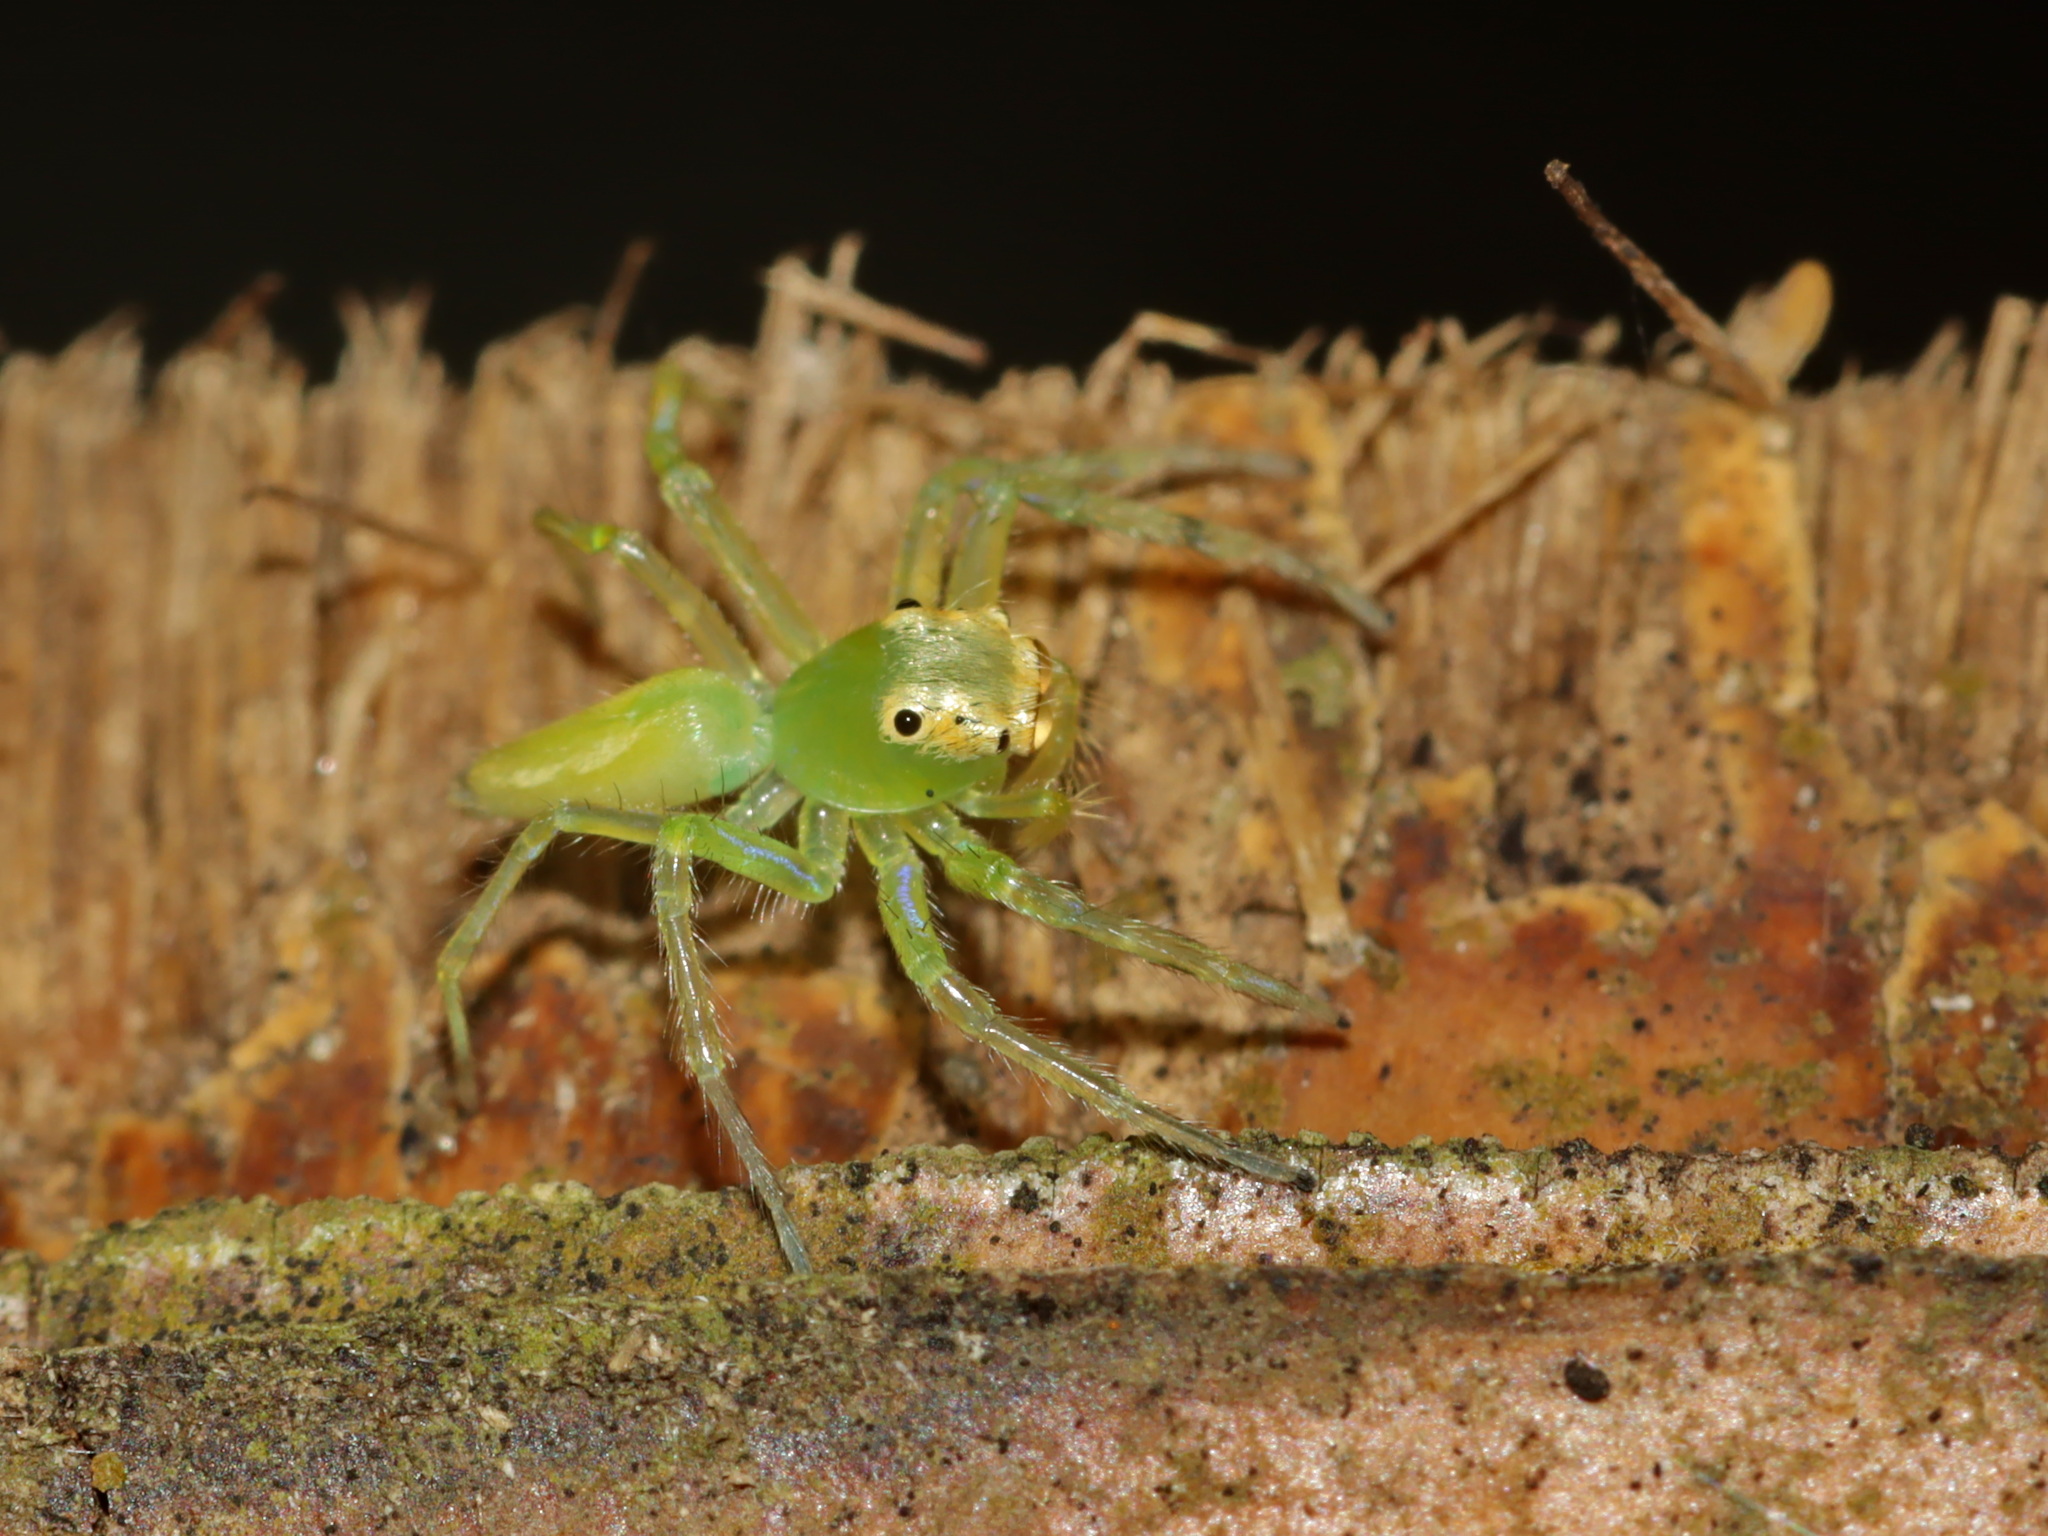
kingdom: Animalia
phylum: Arthropoda
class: Arachnida
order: Araneae
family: Salticidae
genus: Epeus
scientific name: Epeus flavobilineatus
